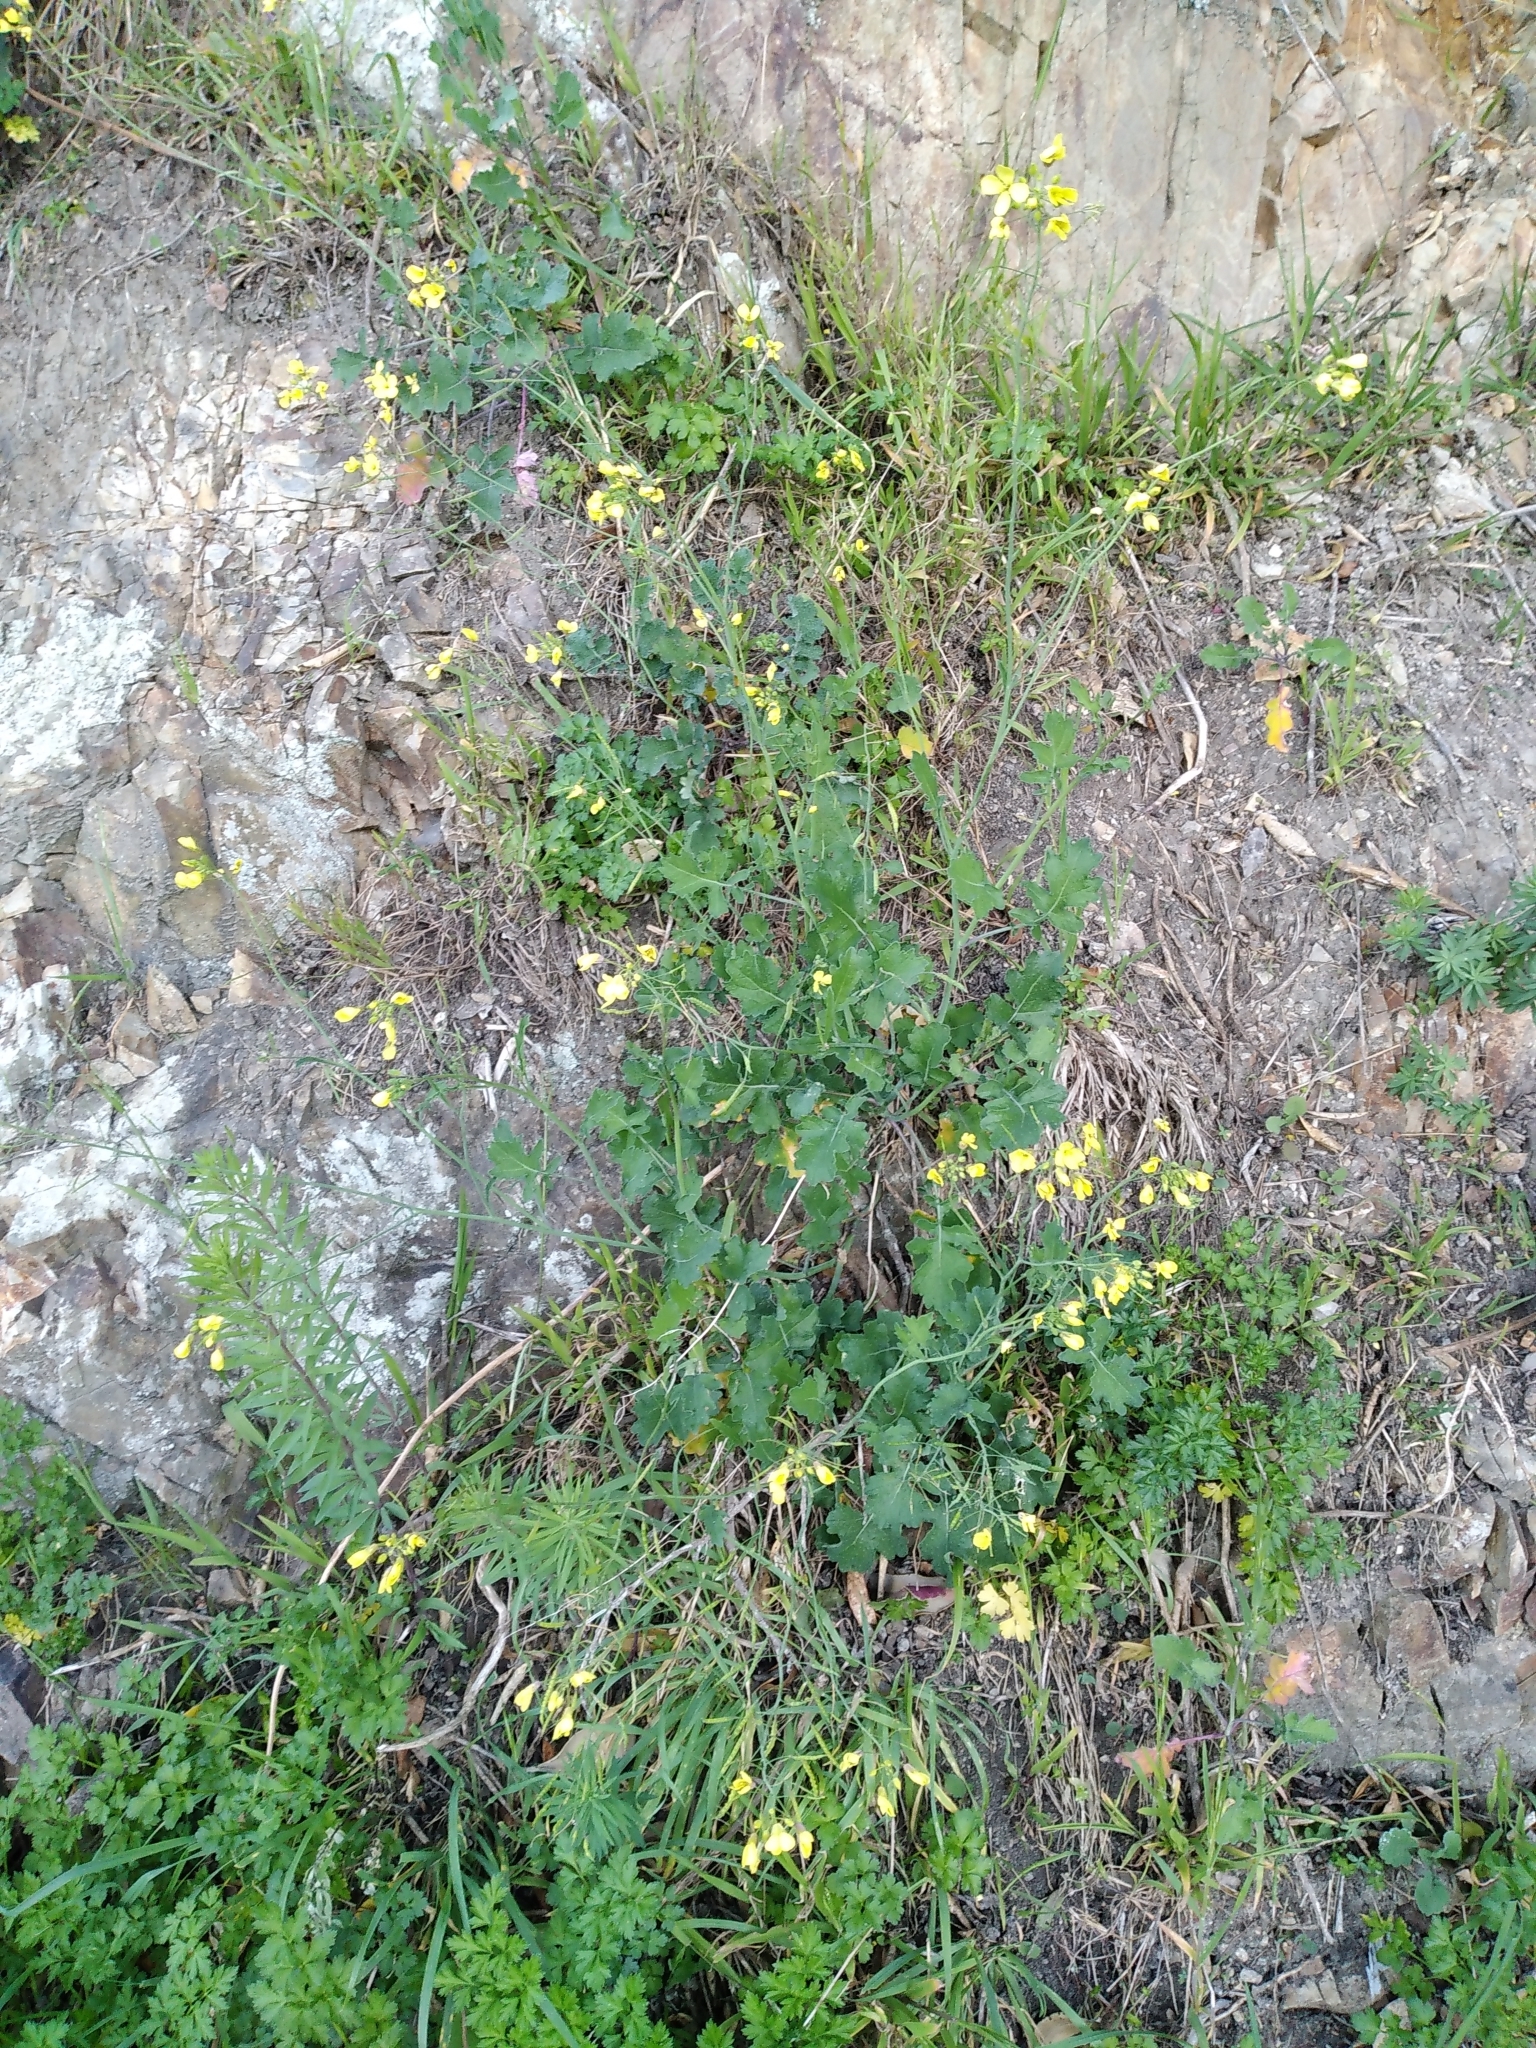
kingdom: Plantae
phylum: Tracheophyta
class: Magnoliopsida
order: Brassicales
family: Brassicaceae
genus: Brassica
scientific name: Brassica fruticulosa
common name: Twiggy turnip
